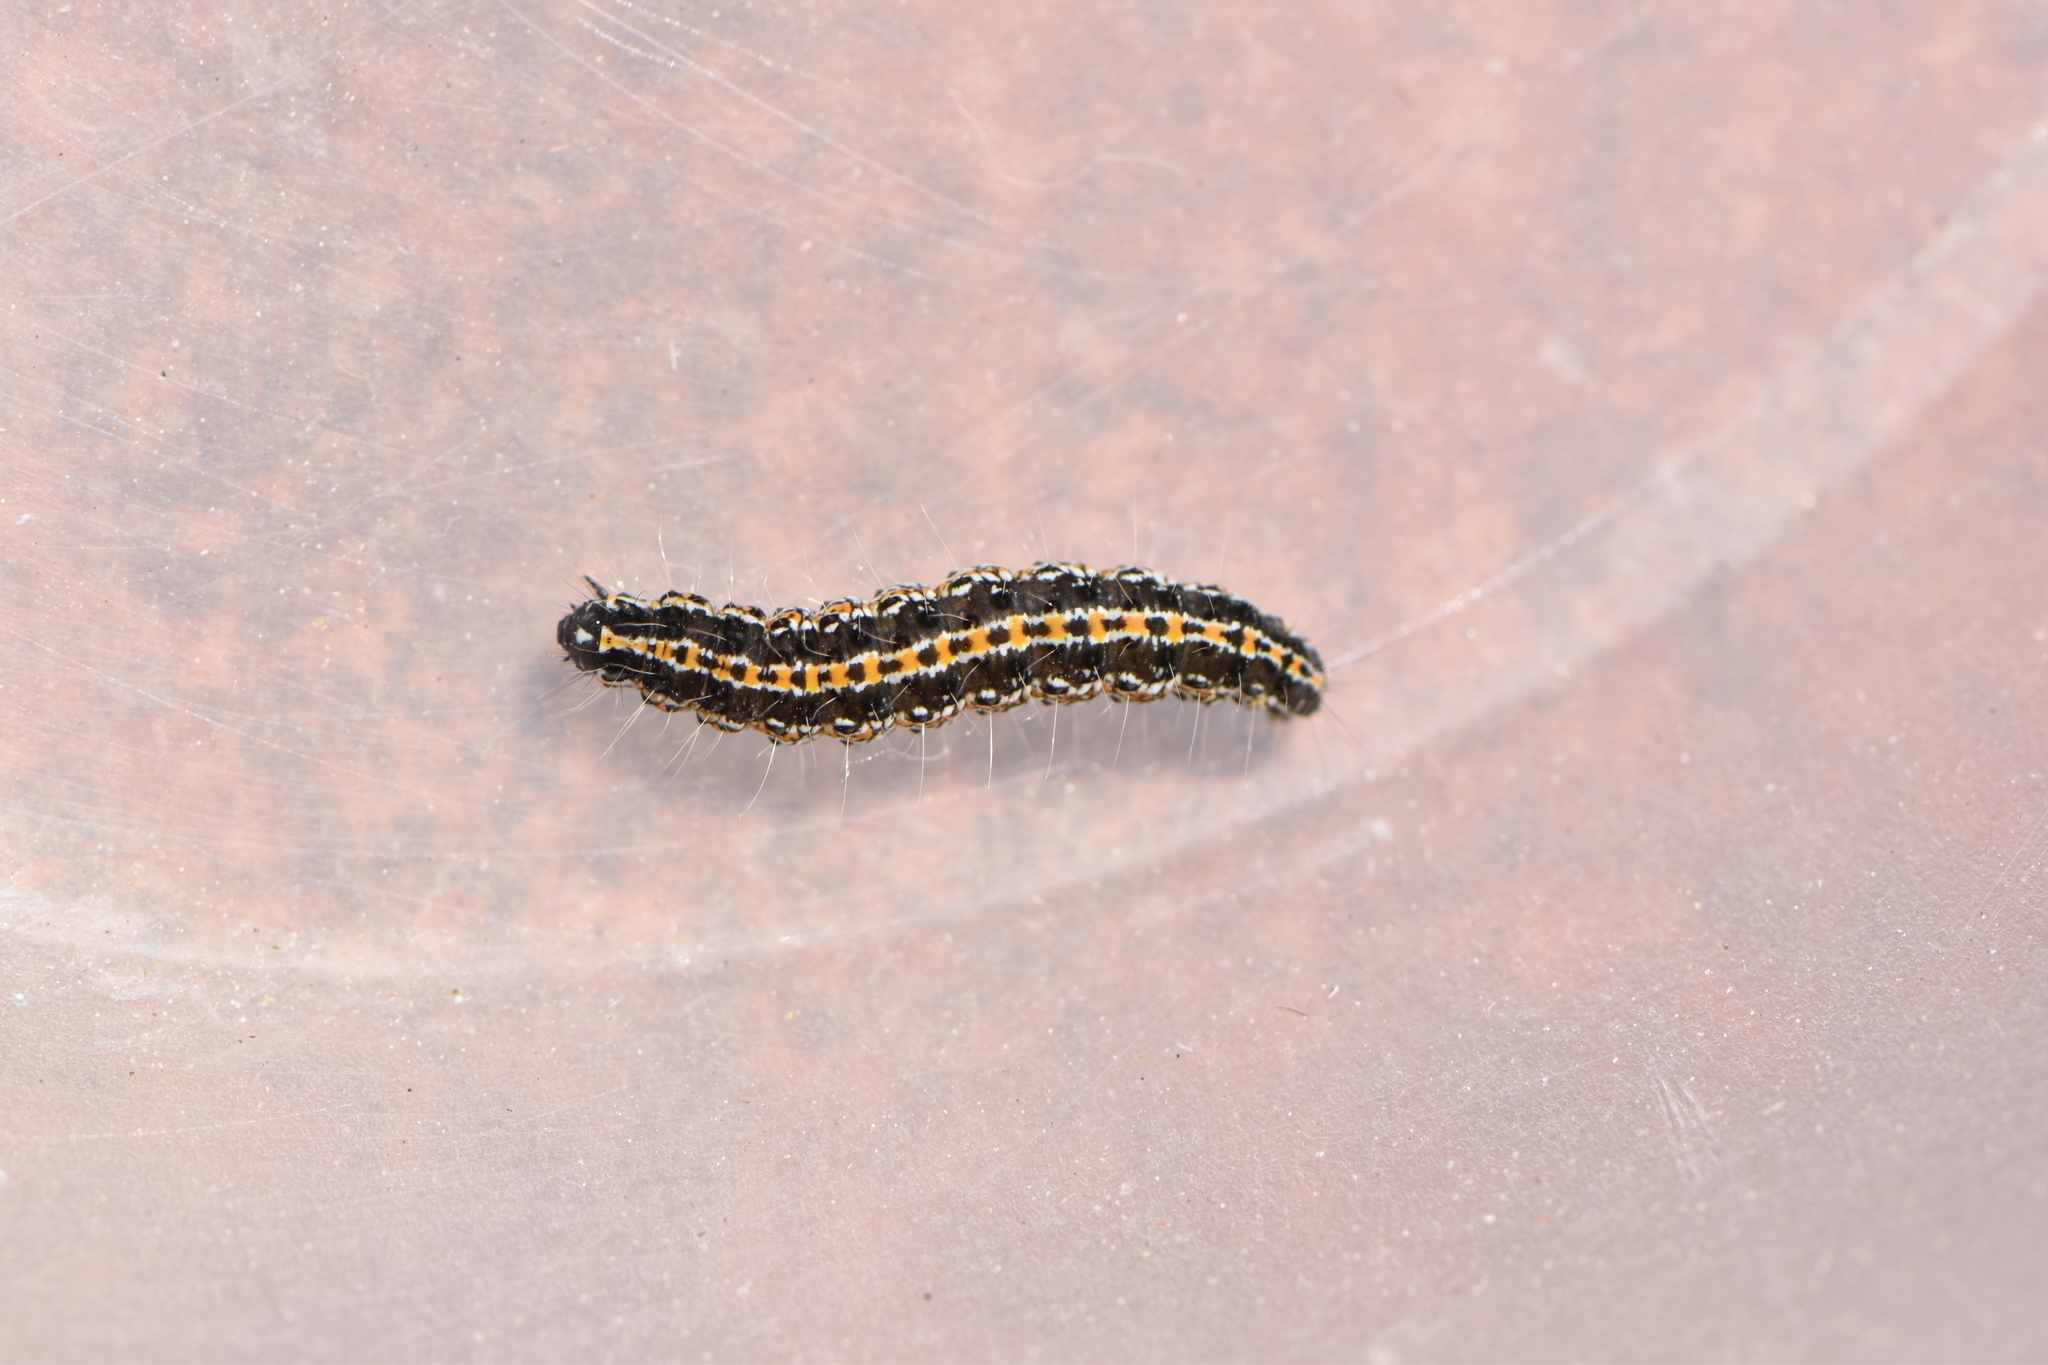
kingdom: Animalia
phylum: Arthropoda
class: Insecta
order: Lepidoptera
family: Ethmiidae
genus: Ethmia
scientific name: Ethmia bipunctella
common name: Bordered ermel
